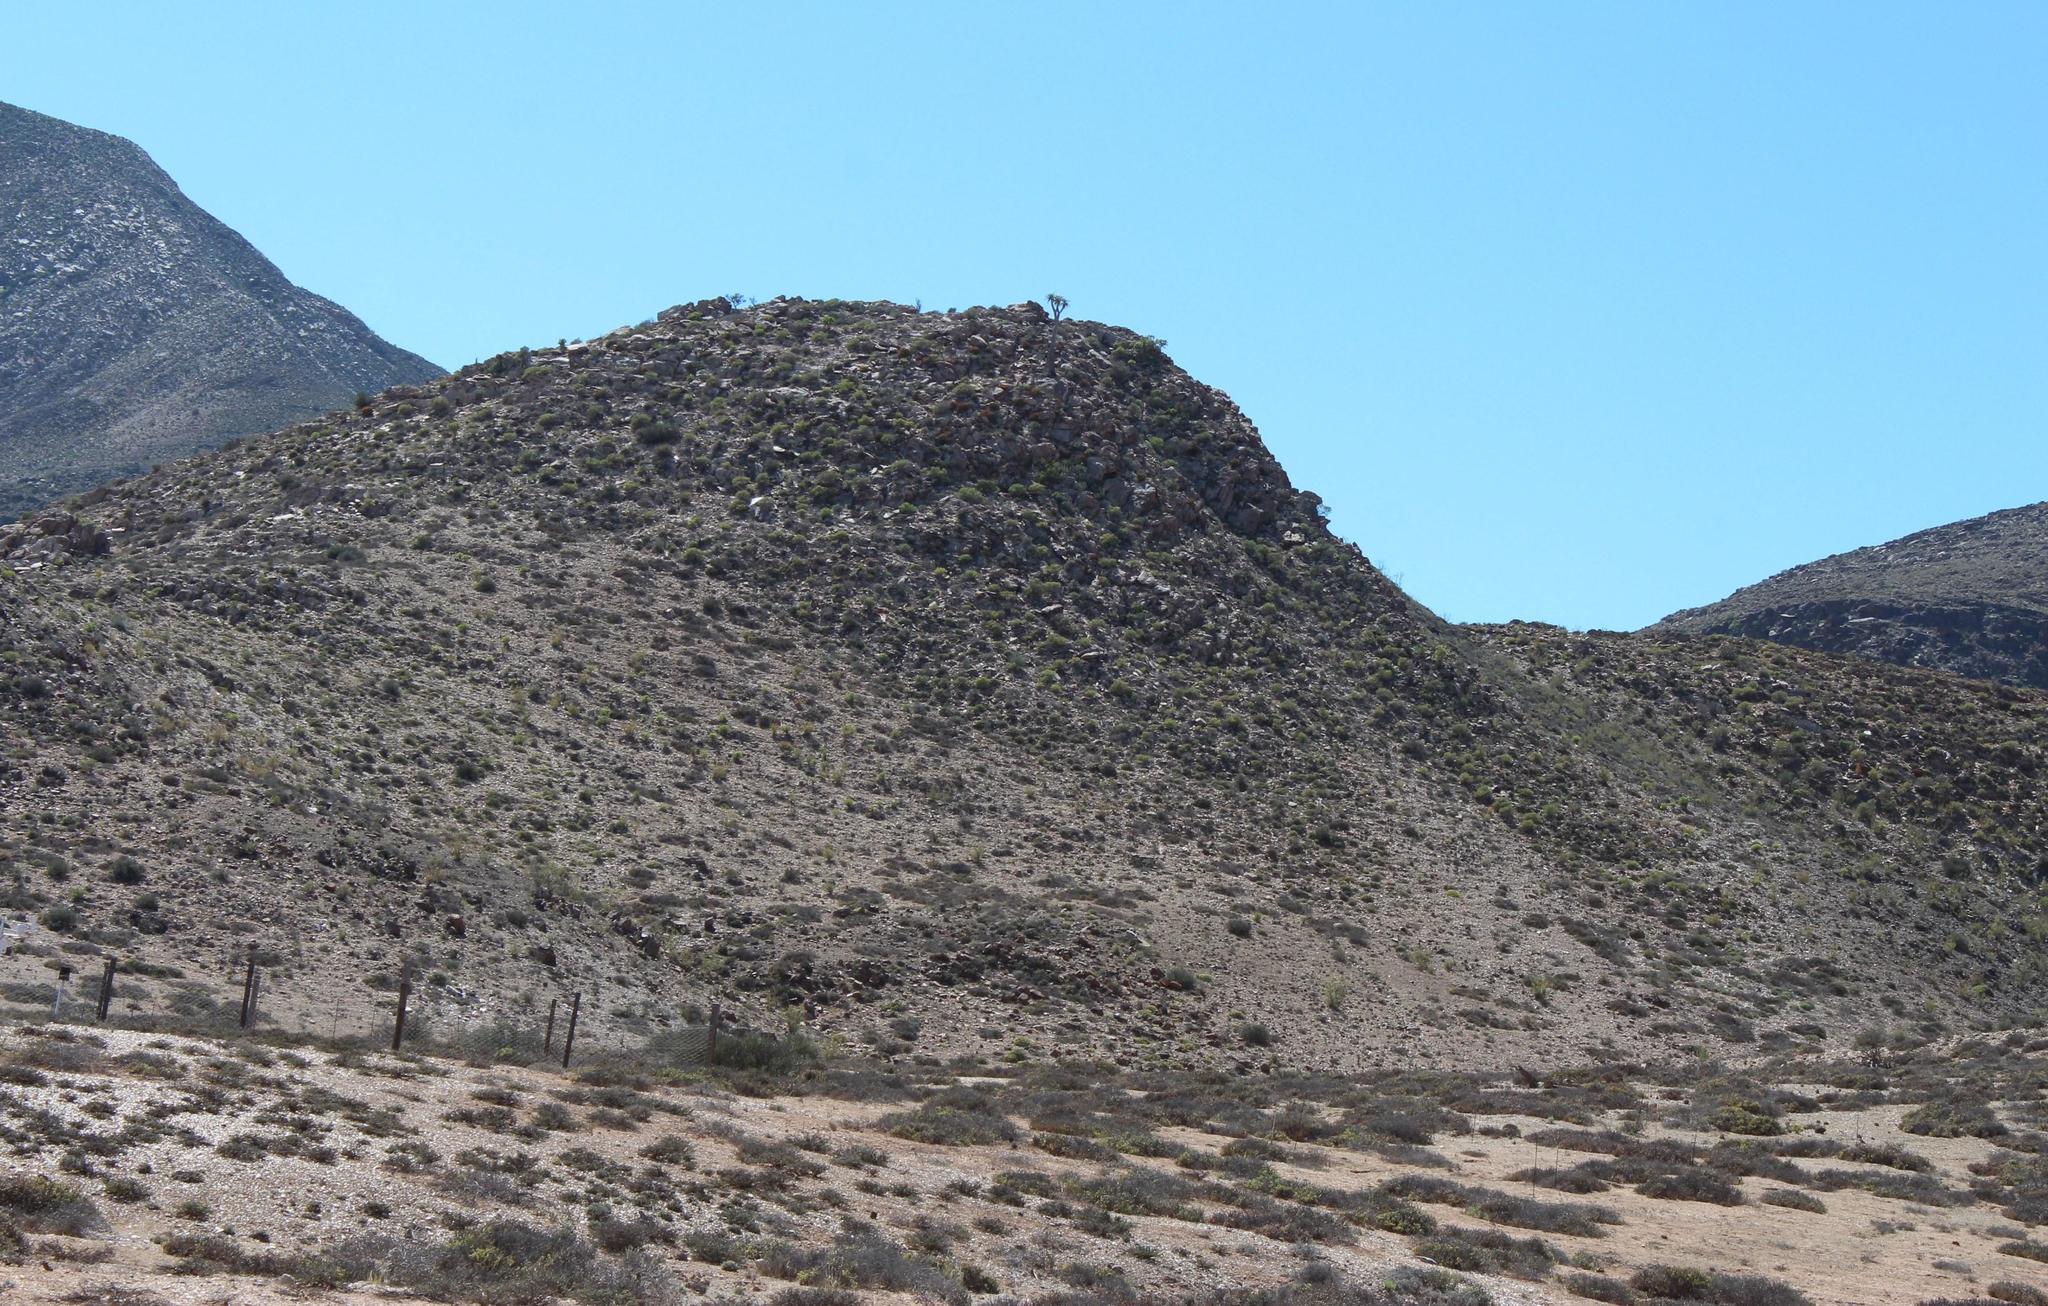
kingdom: Plantae
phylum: Tracheophyta
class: Liliopsida
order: Asparagales
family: Asphodelaceae
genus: Aloidendron
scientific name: Aloidendron pillansii
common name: Bastard quiver tree
